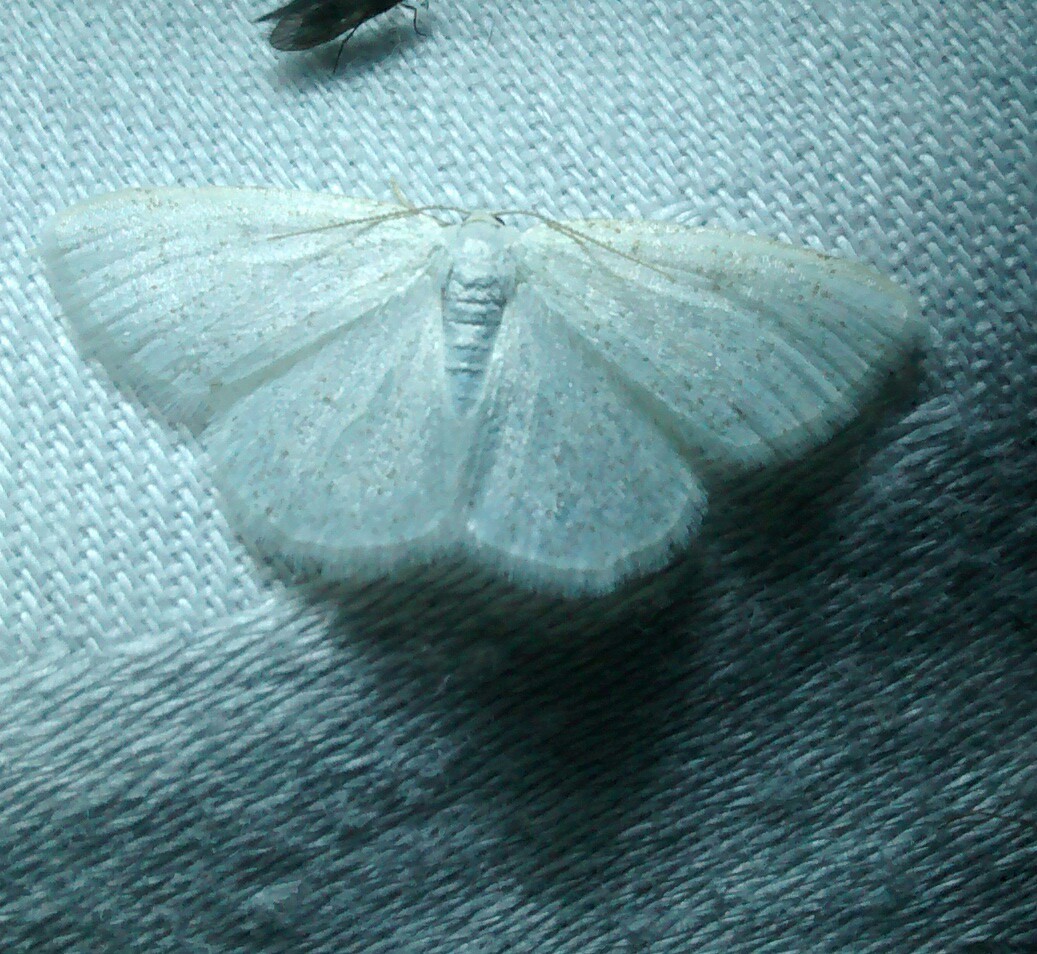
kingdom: Animalia
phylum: Arthropoda
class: Insecta
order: Lepidoptera
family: Geometridae
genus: Cabera
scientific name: Cabera variolaria
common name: Pink-striped willow spanworm
